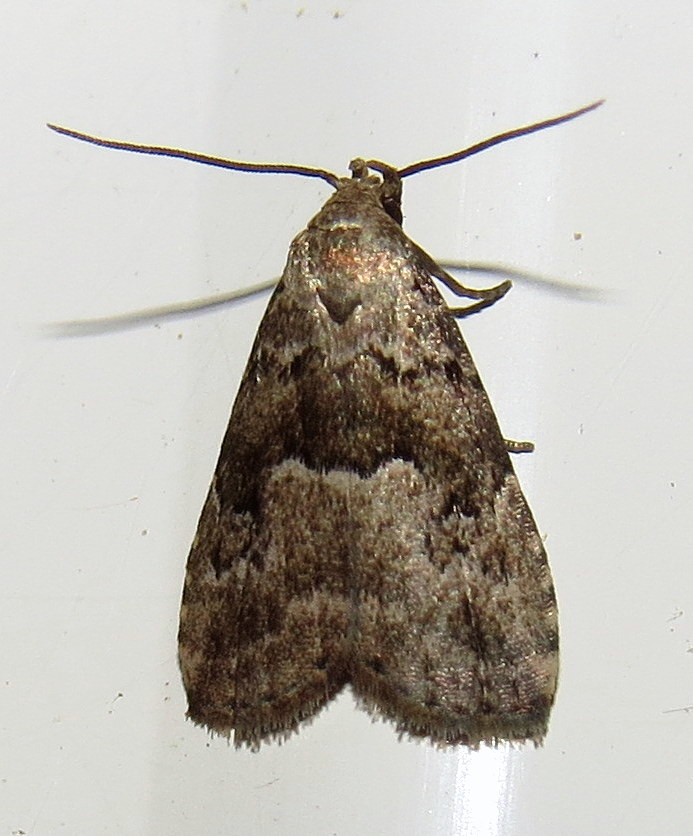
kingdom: Animalia
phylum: Arthropoda
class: Insecta
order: Lepidoptera
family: Erebidae
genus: Hypenodes
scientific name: Hypenodes franclemonti
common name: Franclemont's hypenodes moth
